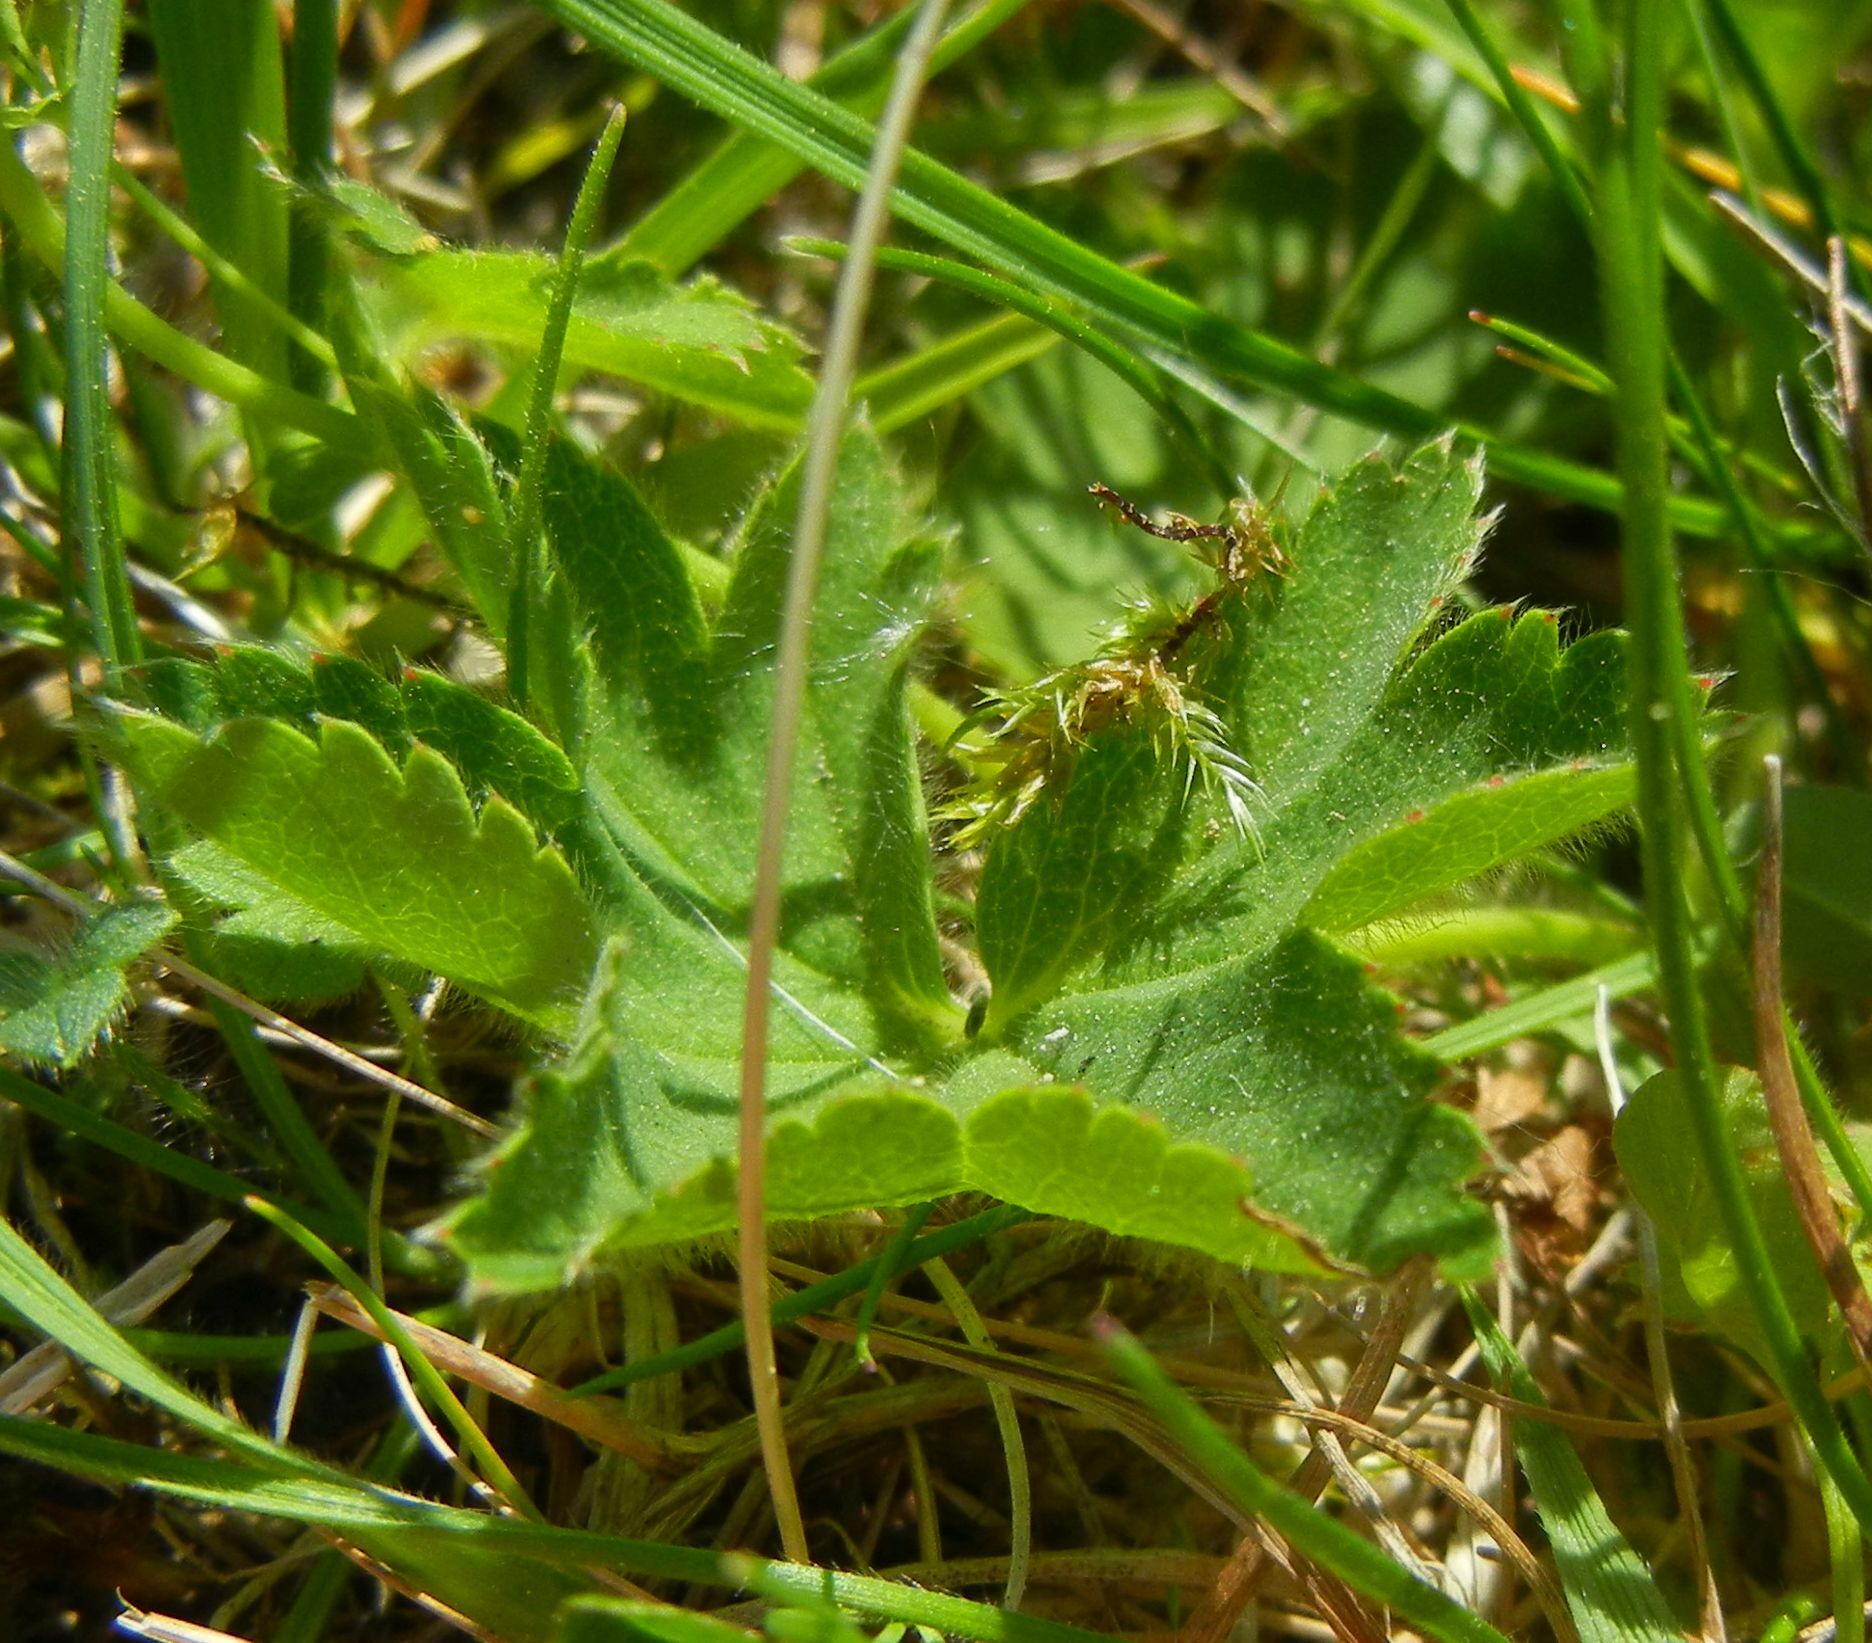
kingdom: Plantae
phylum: Tracheophyta
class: Magnoliopsida
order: Rosales
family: Rosaceae
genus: Alchemilla
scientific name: Alchemilla
